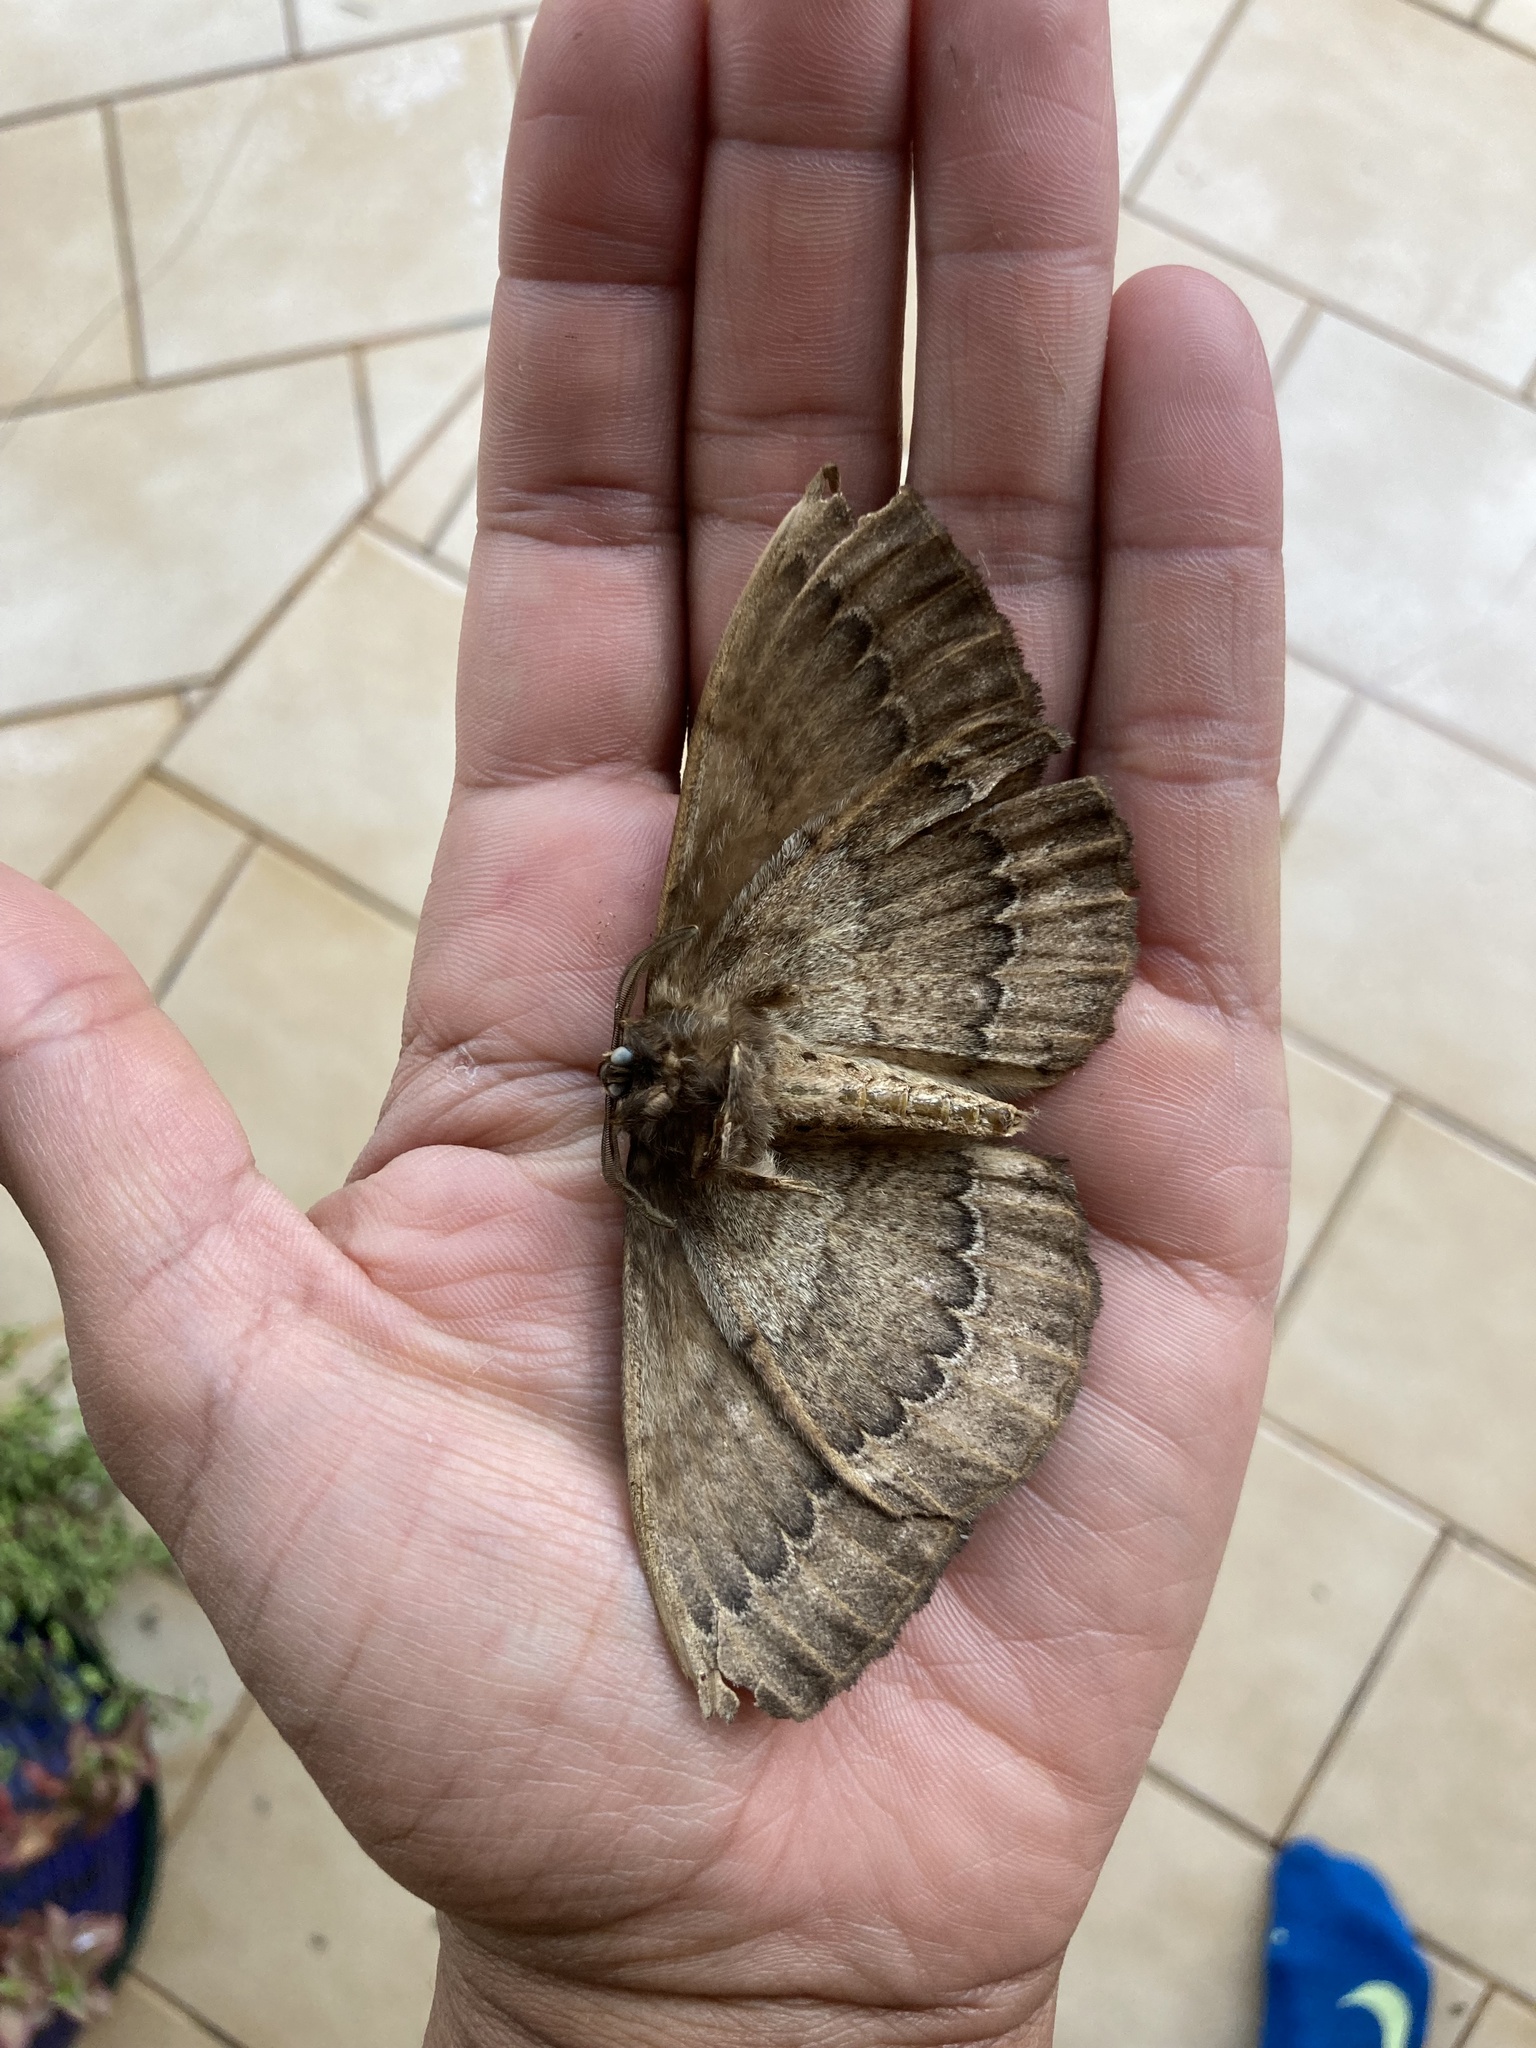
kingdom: Animalia
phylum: Arthropoda
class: Insecta
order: Lepidoptera
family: Eupterotidae
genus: Striphnopteryx
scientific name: Striphnopteryx edulis
